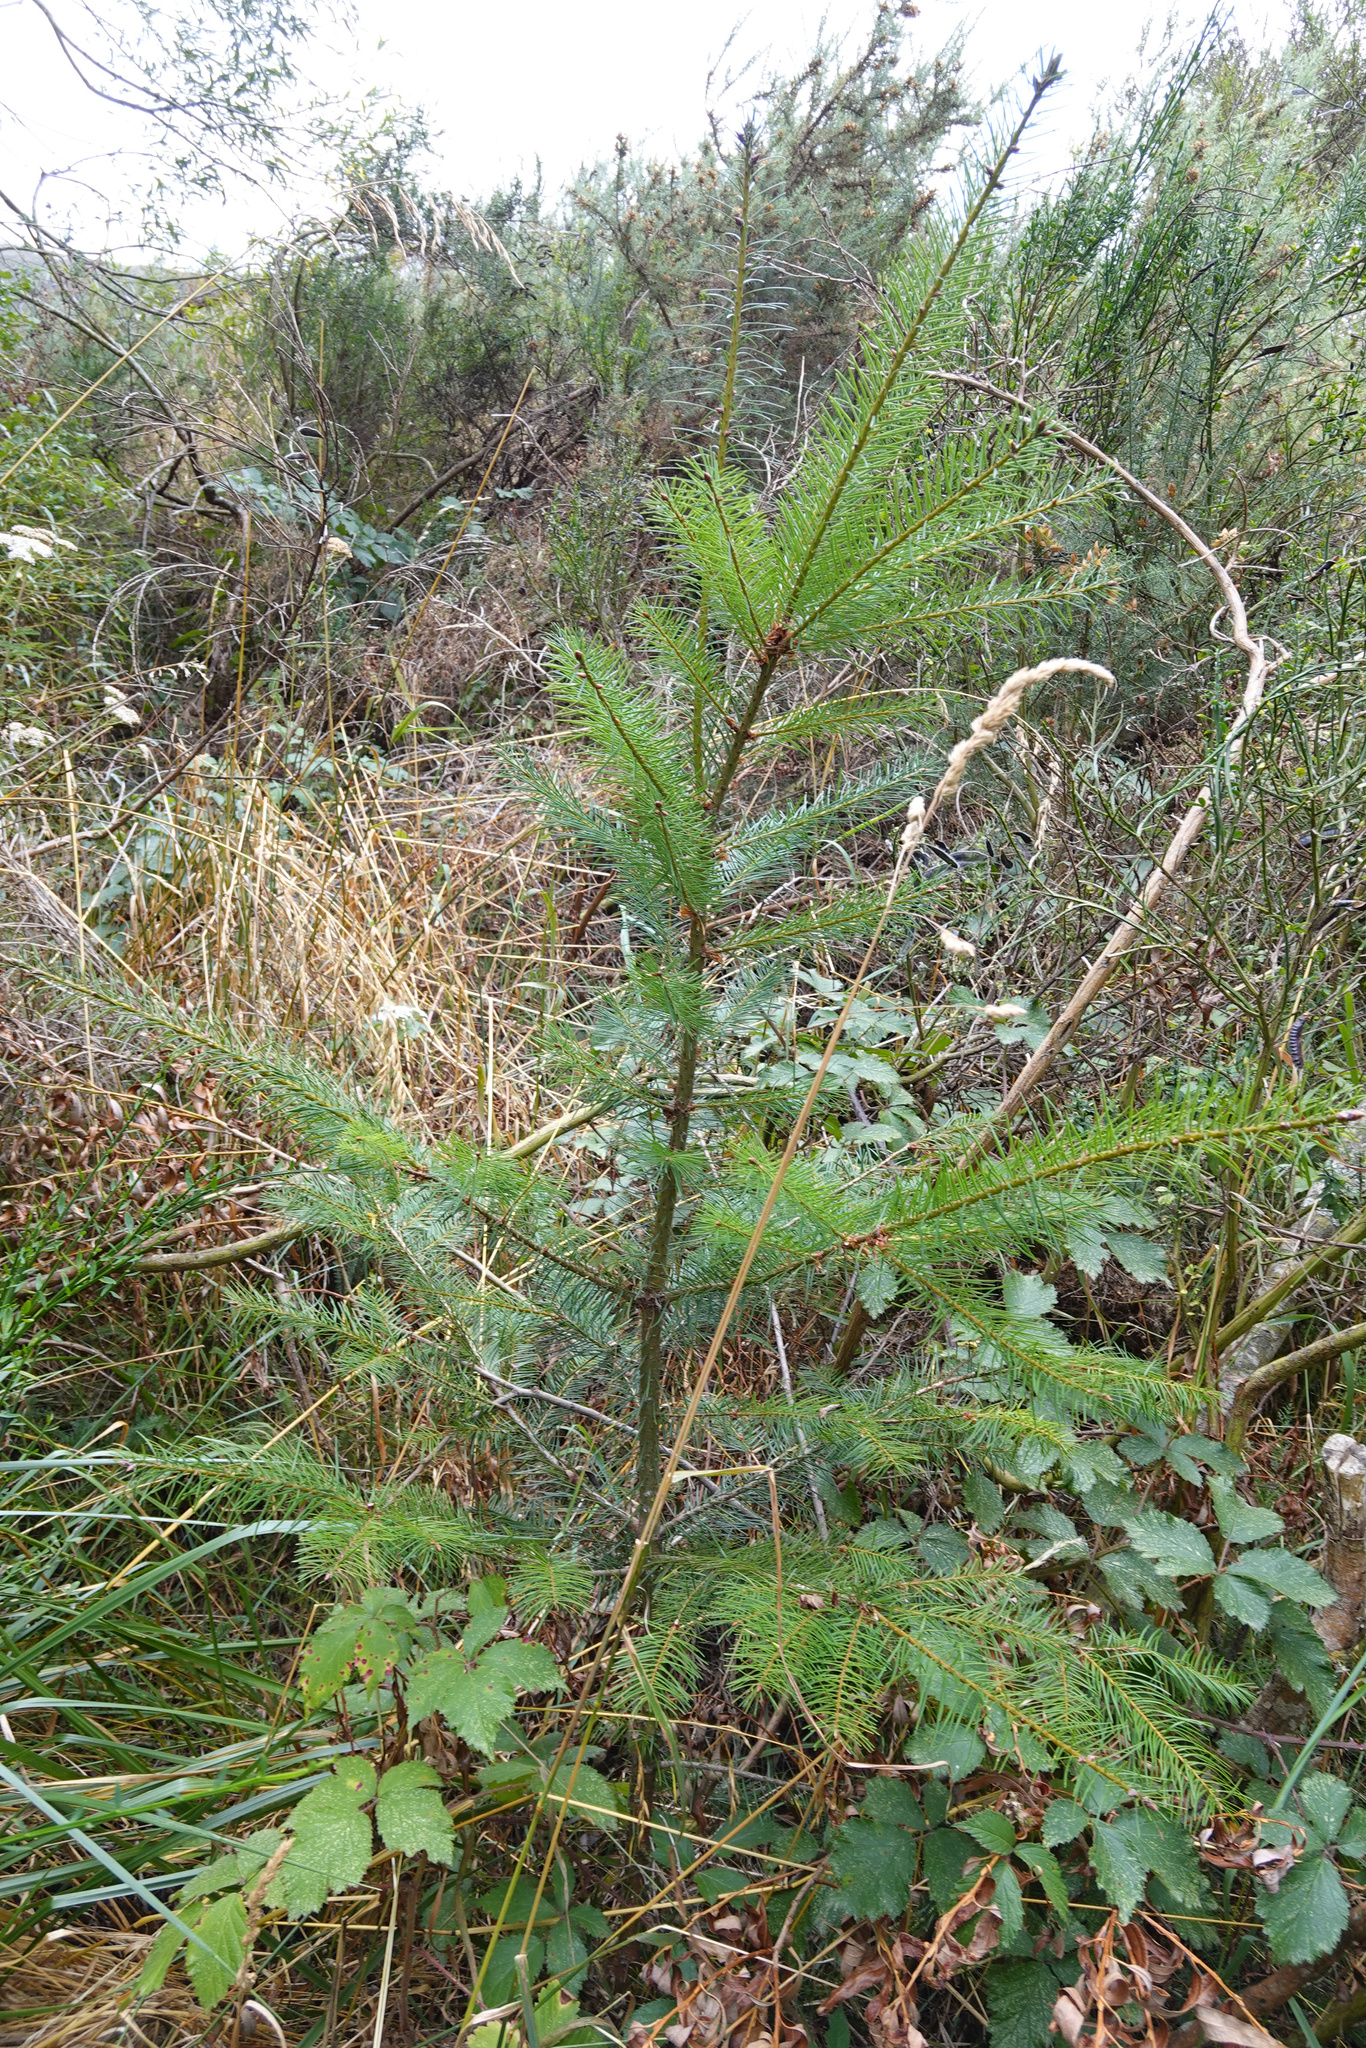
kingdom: Plantae
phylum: Tracheophyta
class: Pinopsida
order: Pinales
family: Pinaceae
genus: Pseudotsuga
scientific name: Pseudotsuga menziesii
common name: Douglas fir
